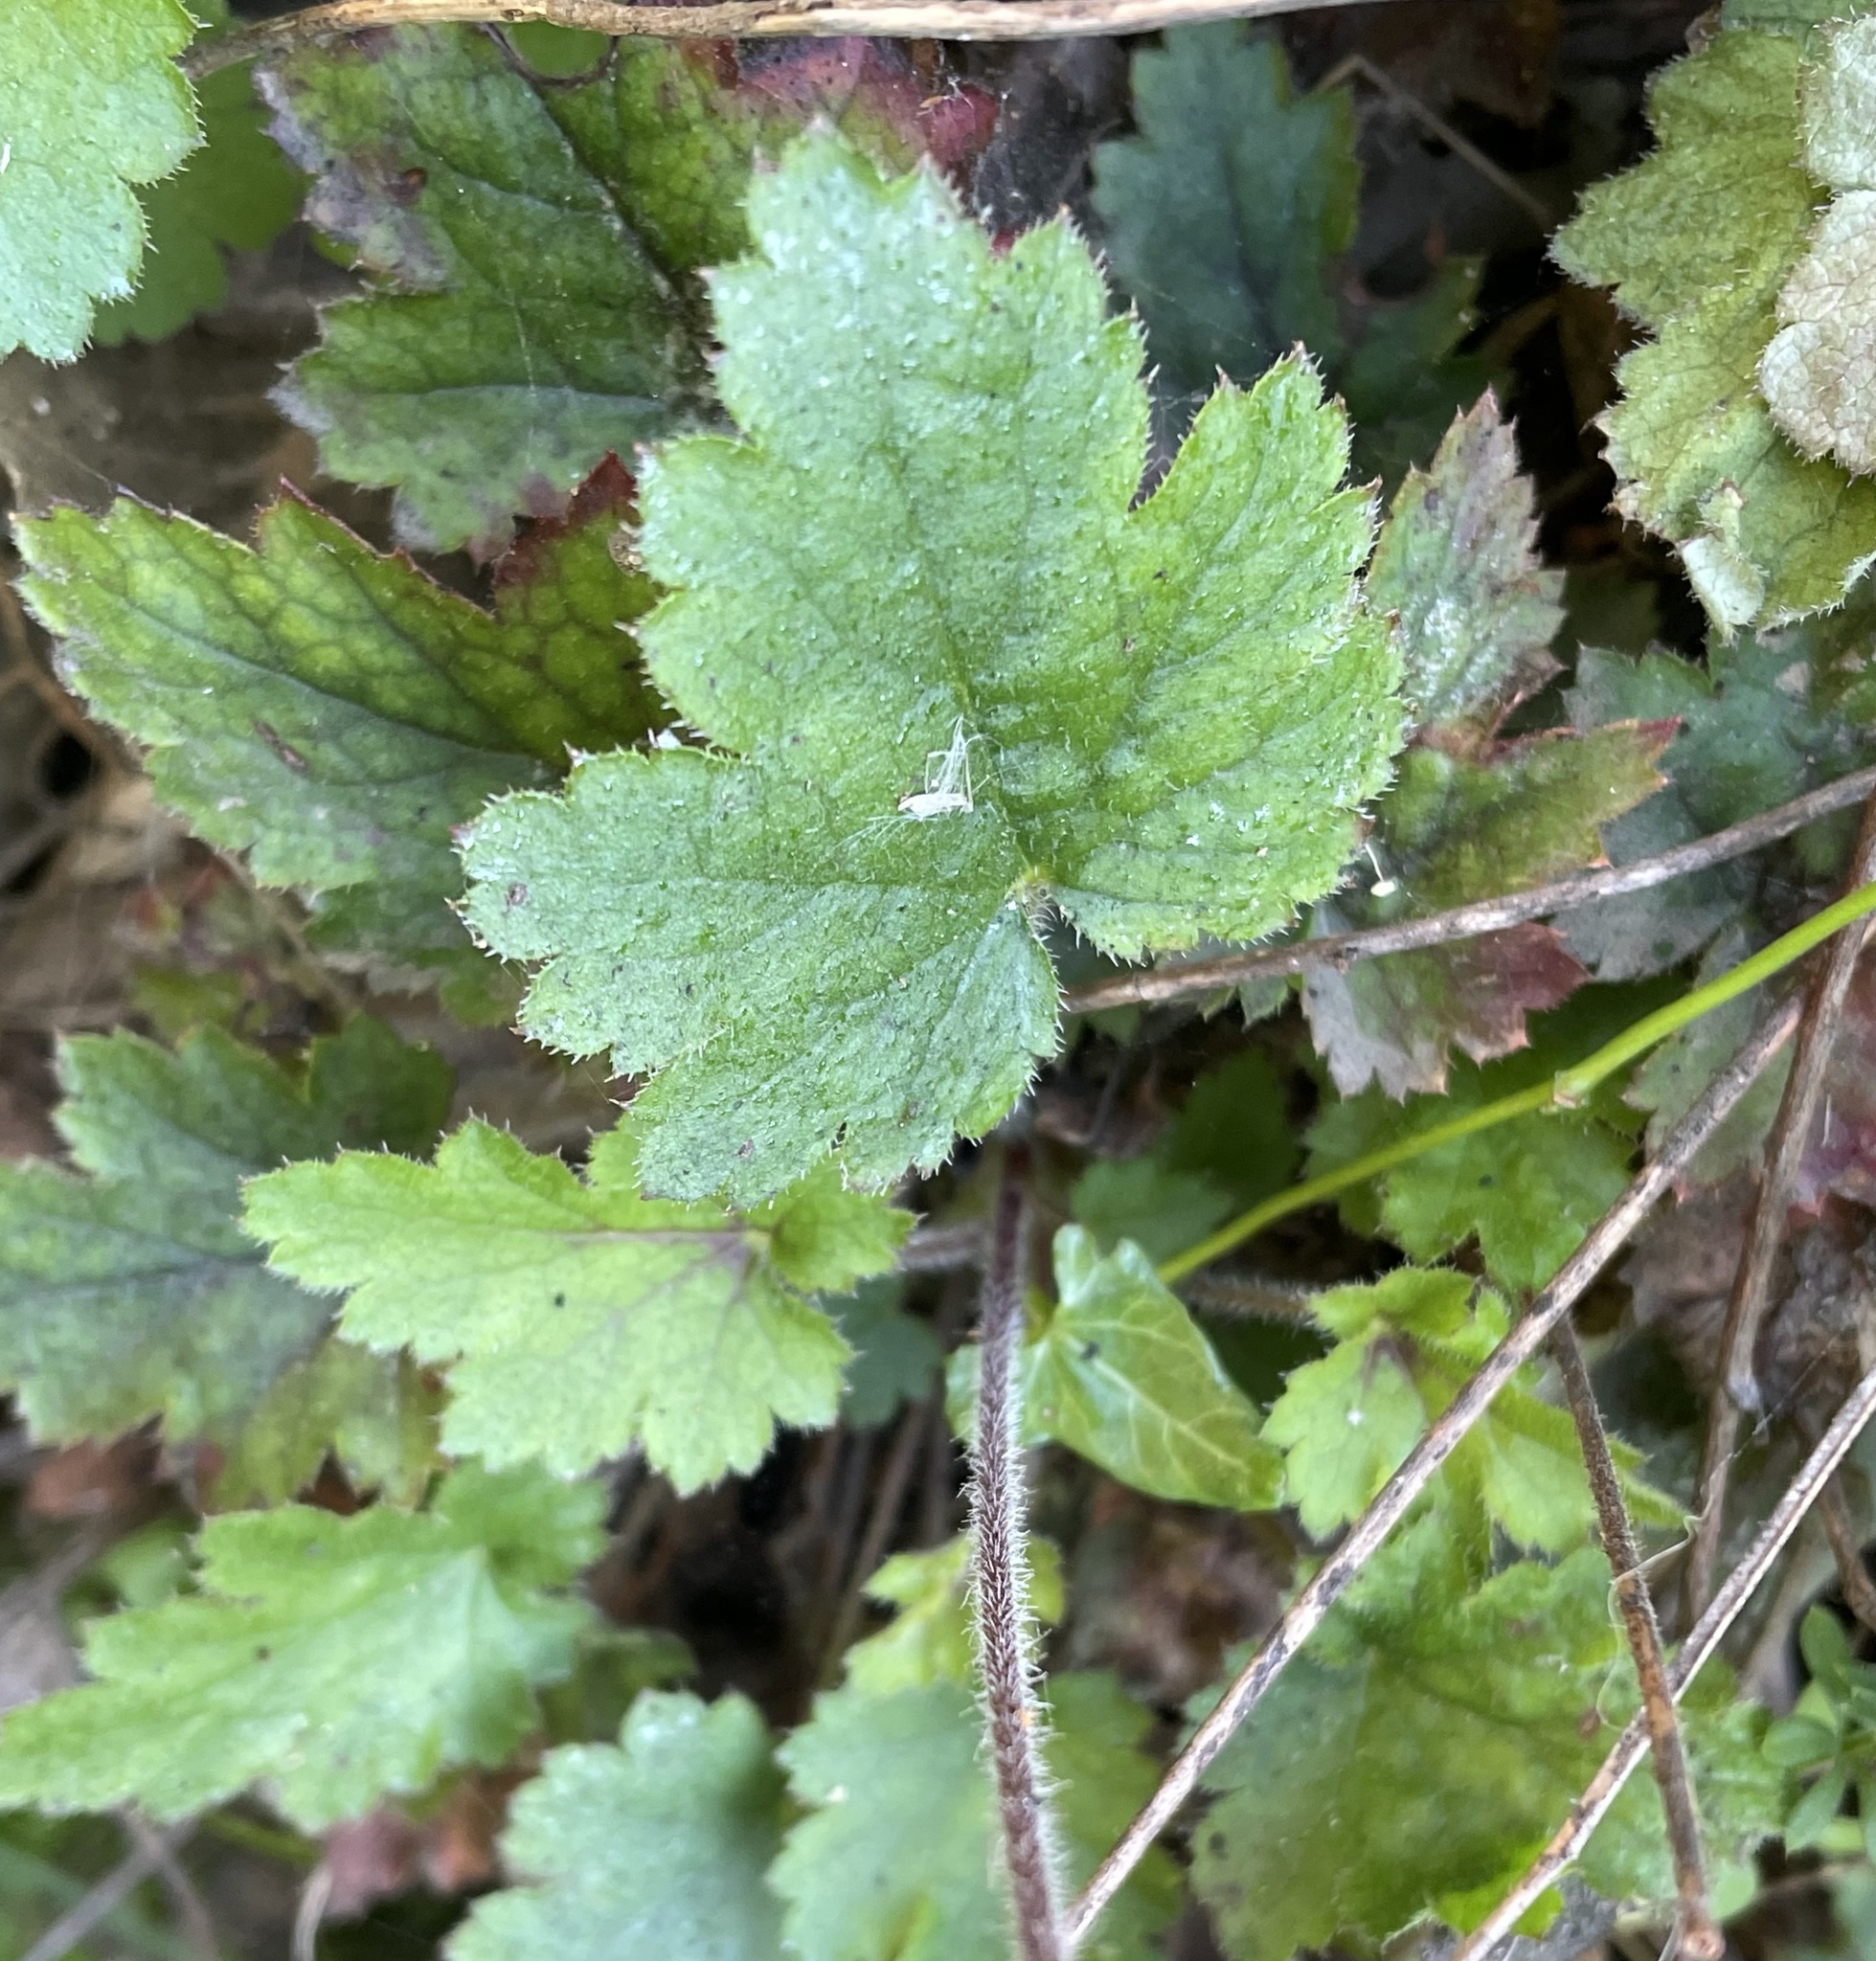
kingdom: Plantae
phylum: Tracheophyta
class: Magnoliopsida
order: Saxifragales
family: Saxifragaceae
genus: Heuchera
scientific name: Heuchera pilosissima
